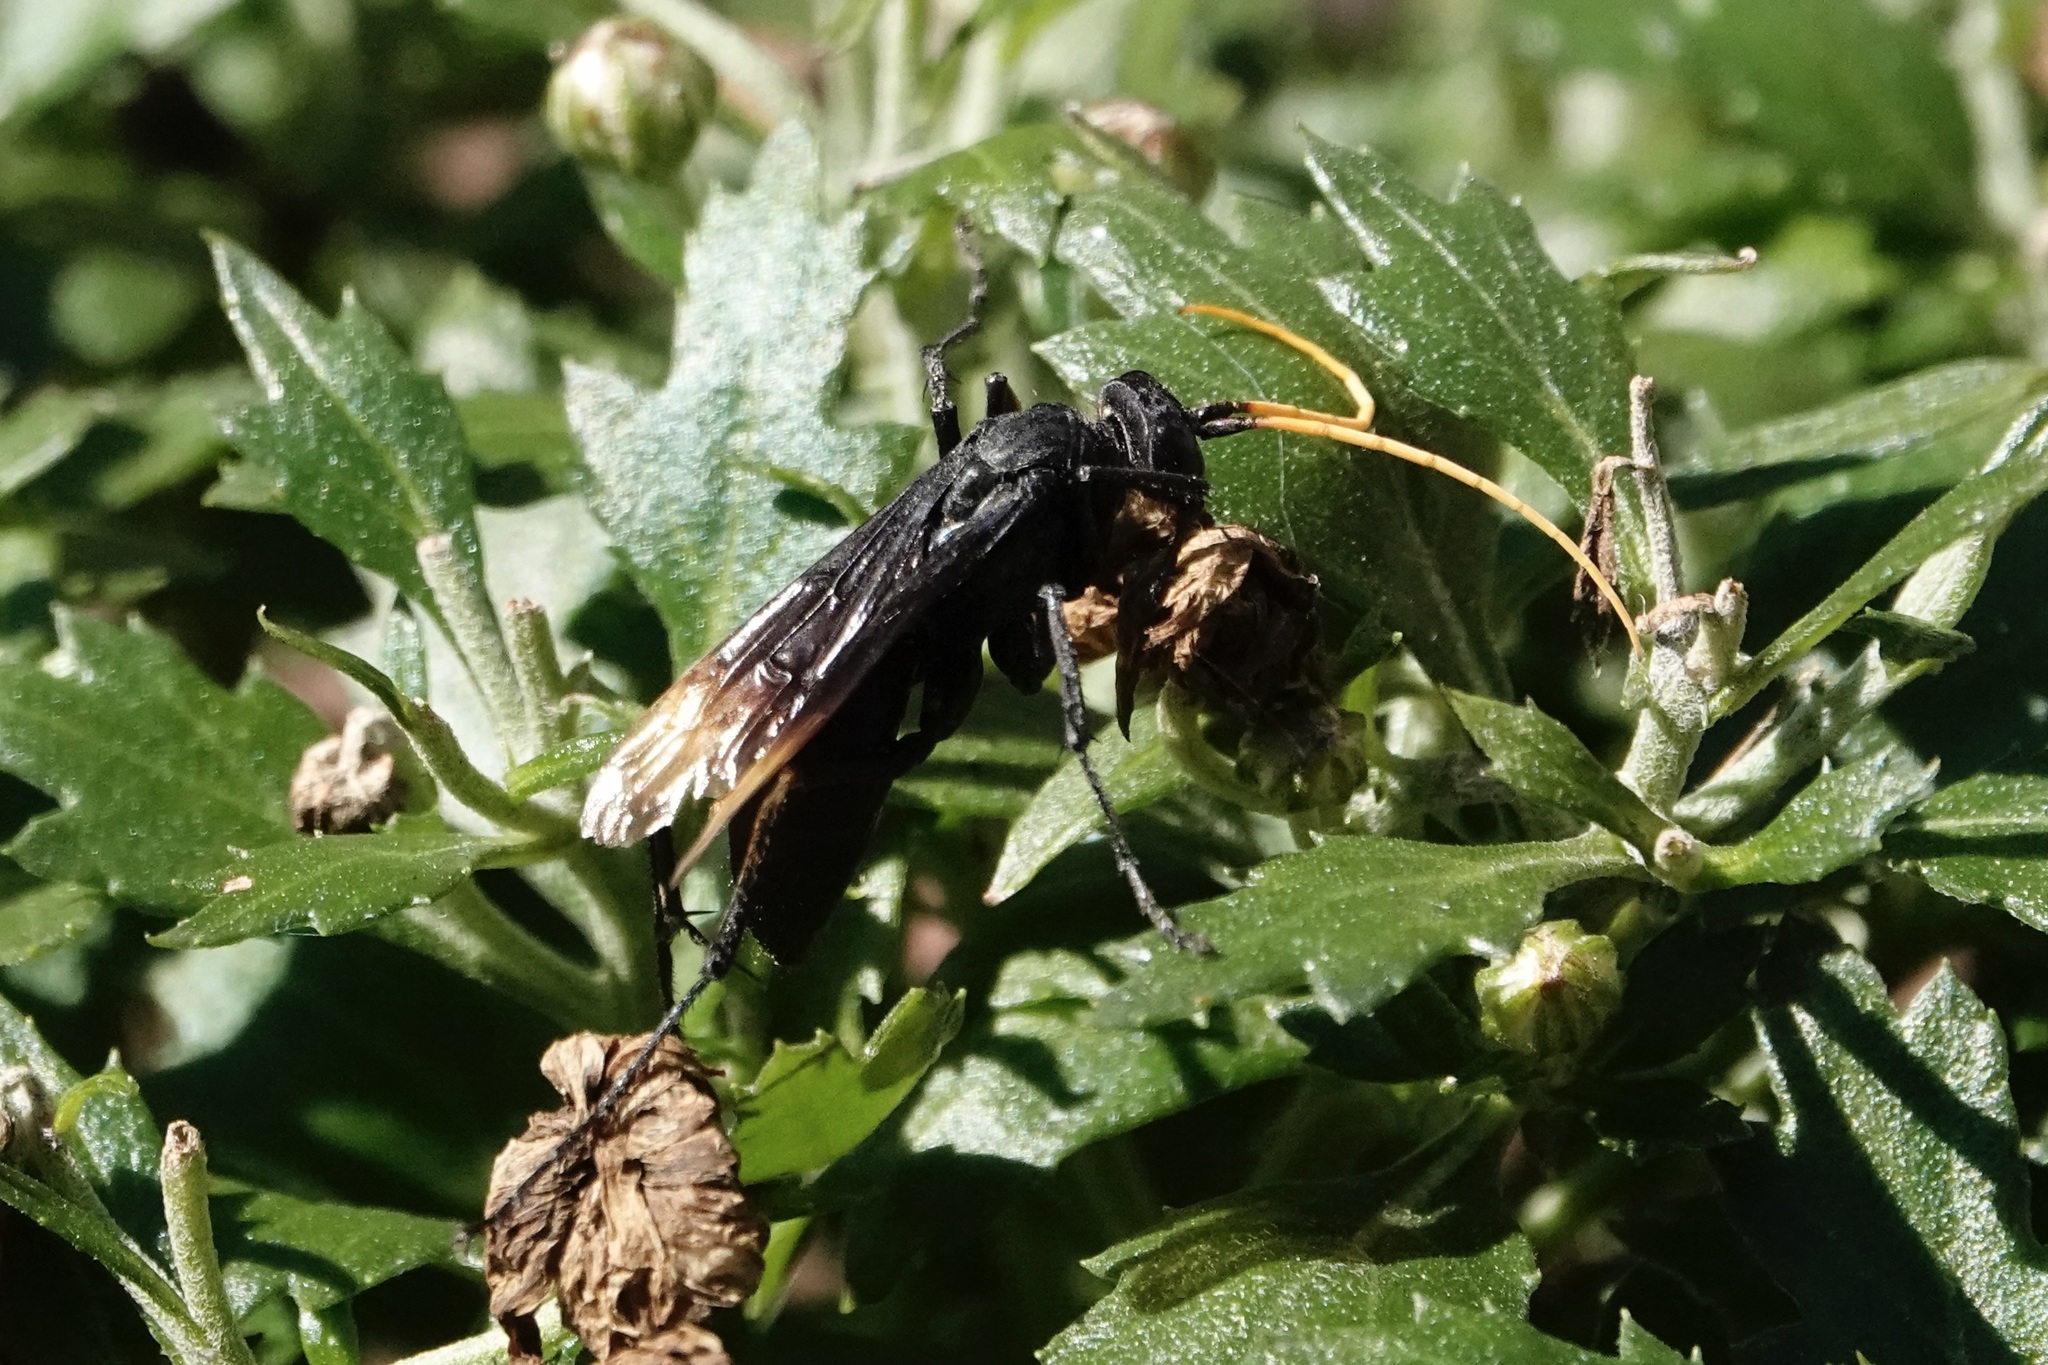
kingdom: Animalia
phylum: Arthropoda
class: Insecta
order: Hymenoptera
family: Pompilidae
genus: Entypus
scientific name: Entypus unifasciatus
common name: Eastern tawny-horned spider wasp
